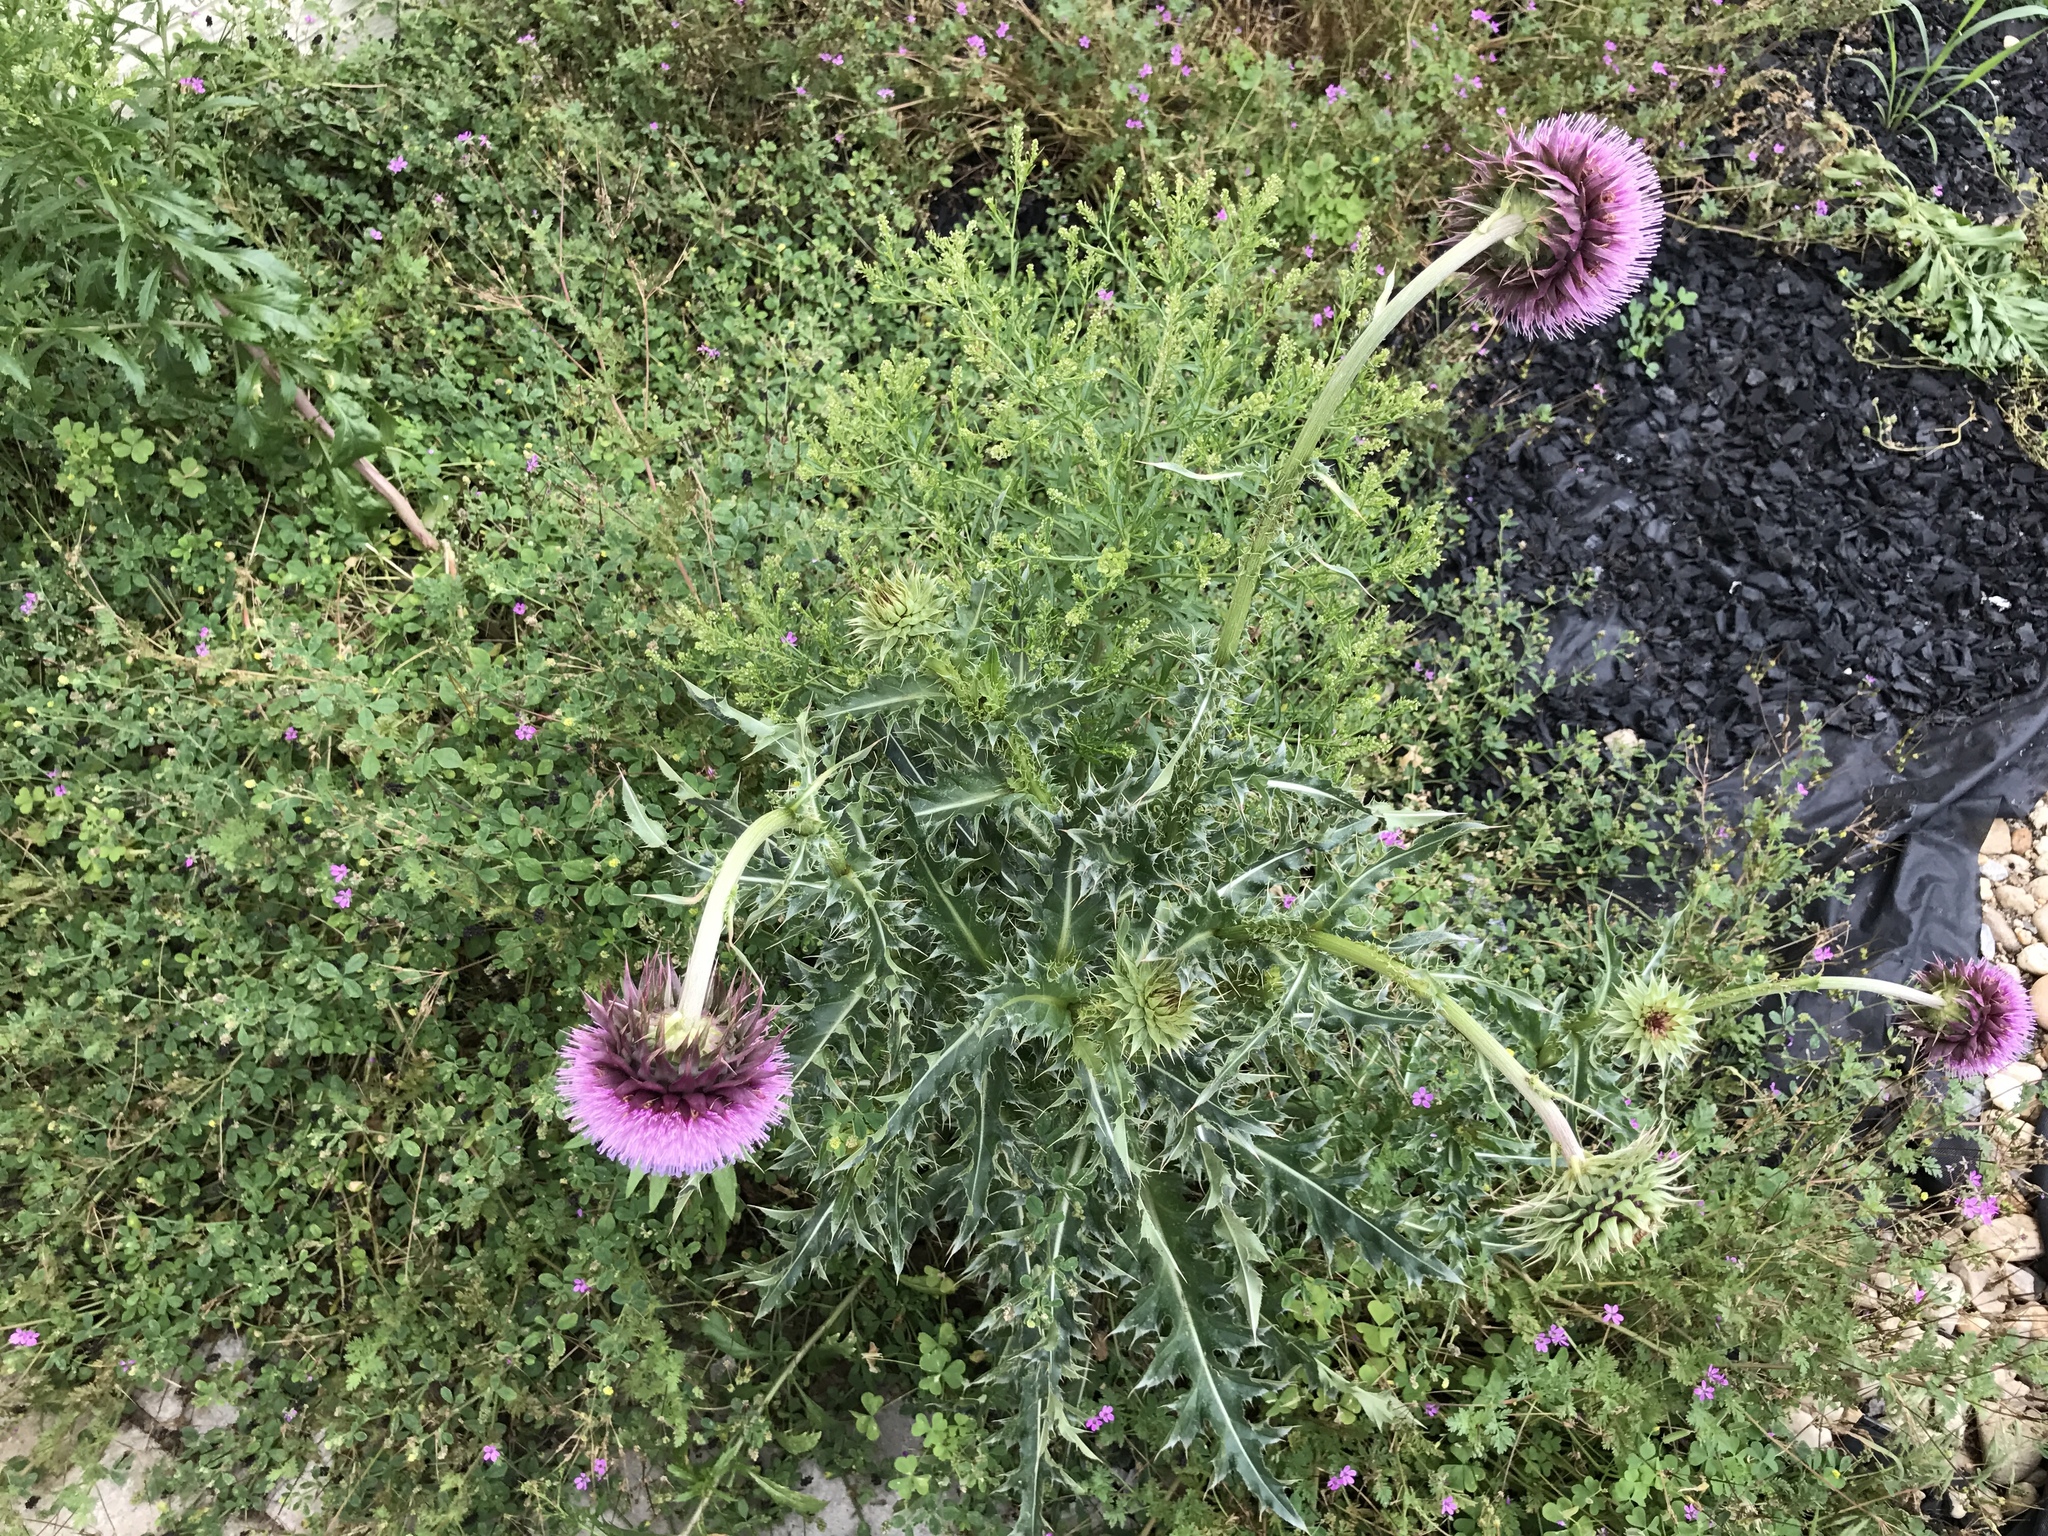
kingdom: Plantae
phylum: Tracheophyta
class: Magnoliopsida
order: Asterales
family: Asteraceae
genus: Carduus
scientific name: Carduus nutans
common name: Musk thistle
